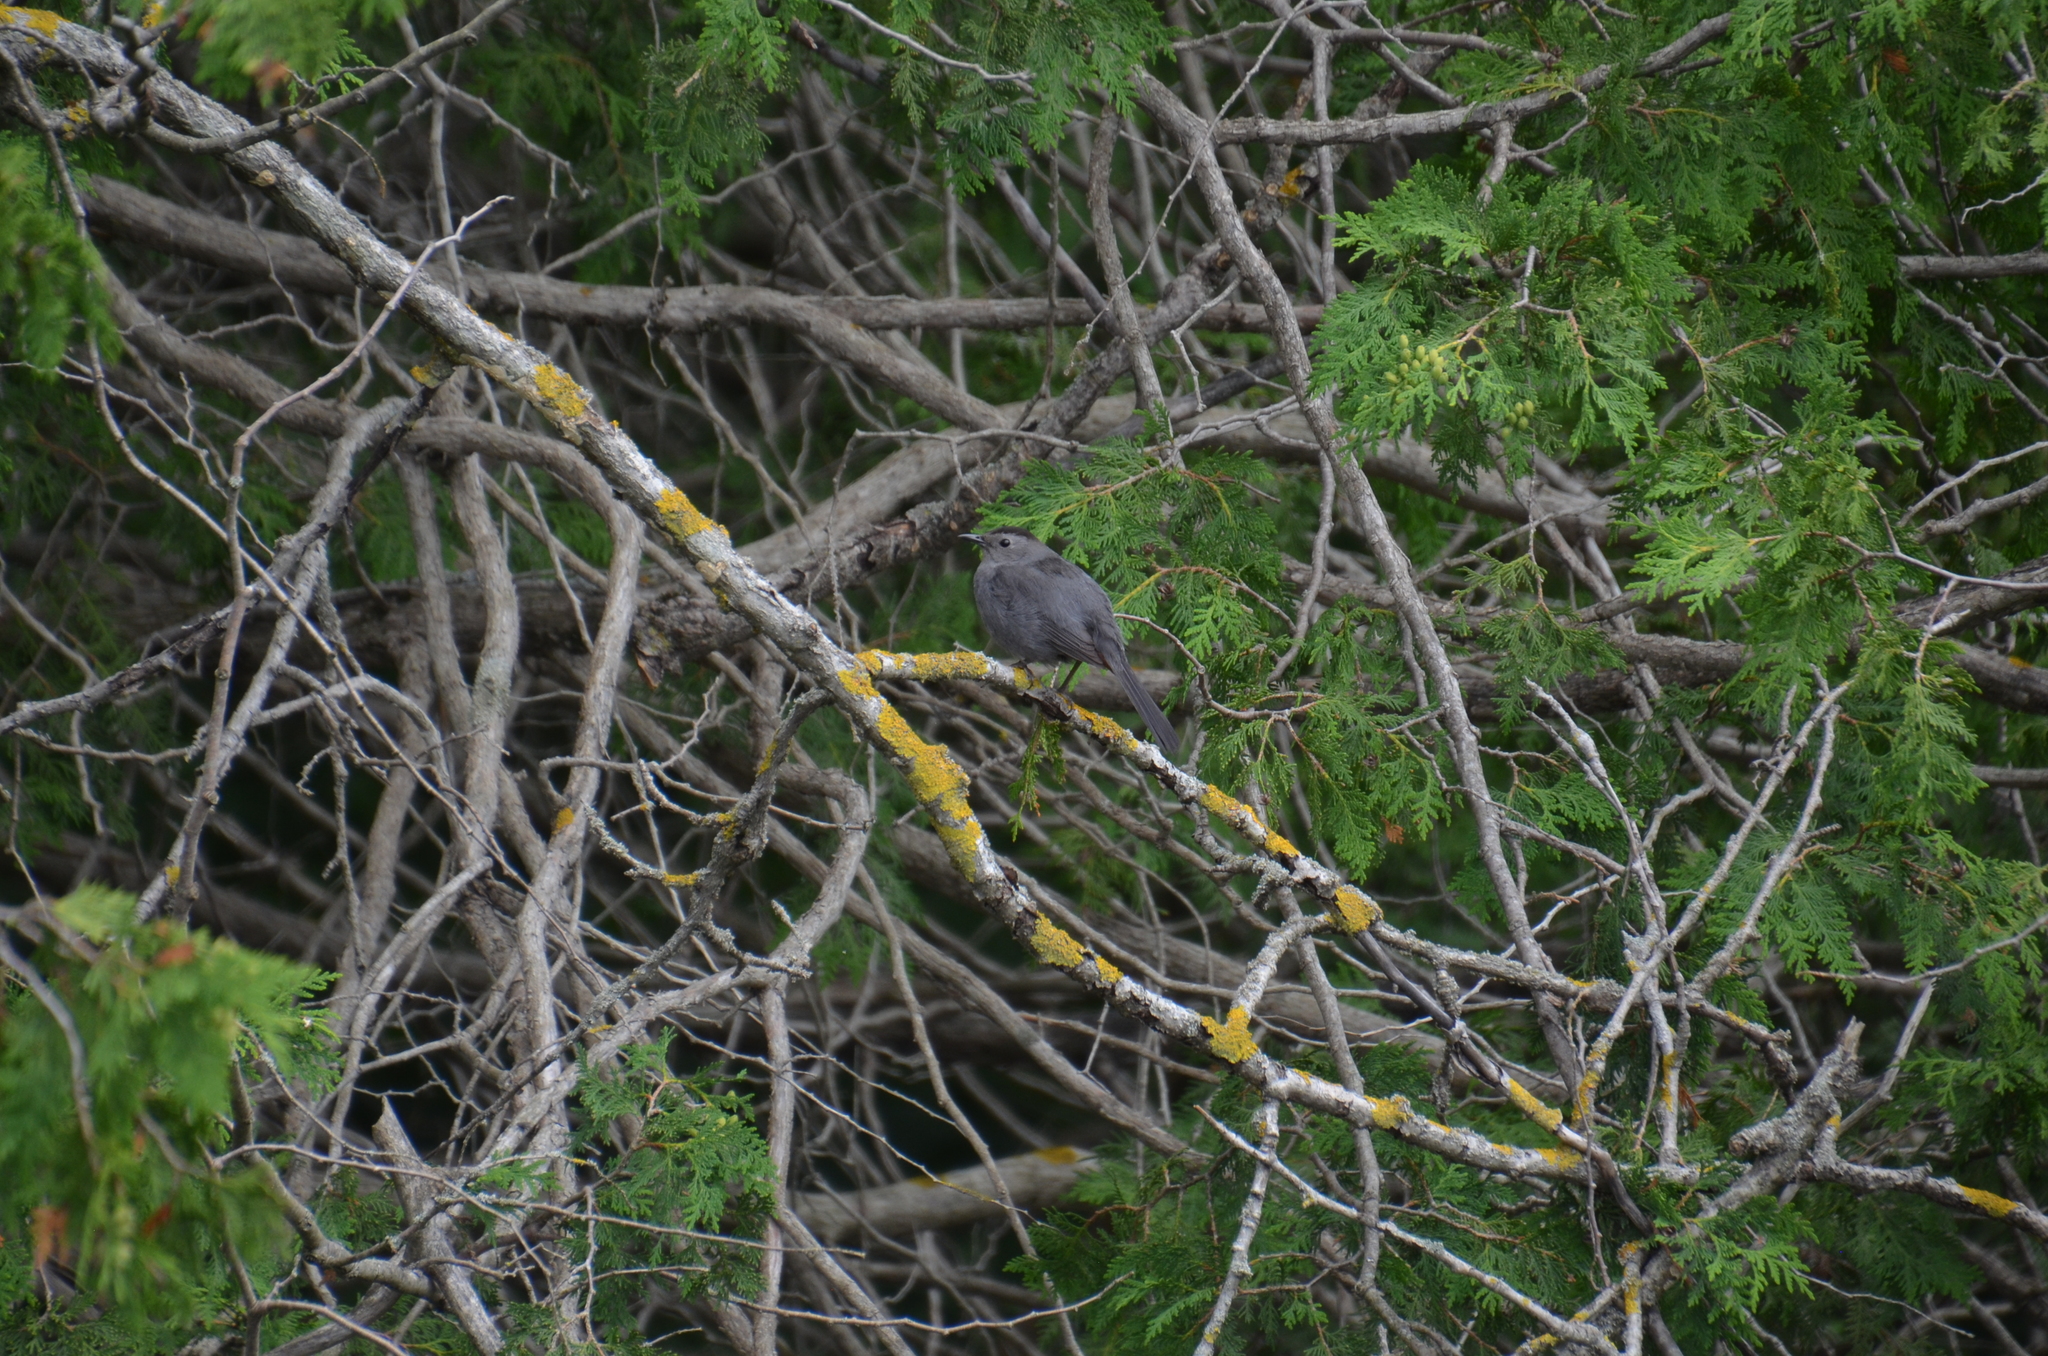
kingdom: Animalia
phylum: Chordata
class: Aves
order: Passeriformes
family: Mimidae
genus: Dumetella
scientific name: Dumetella carolinensis
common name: Gray catbird
